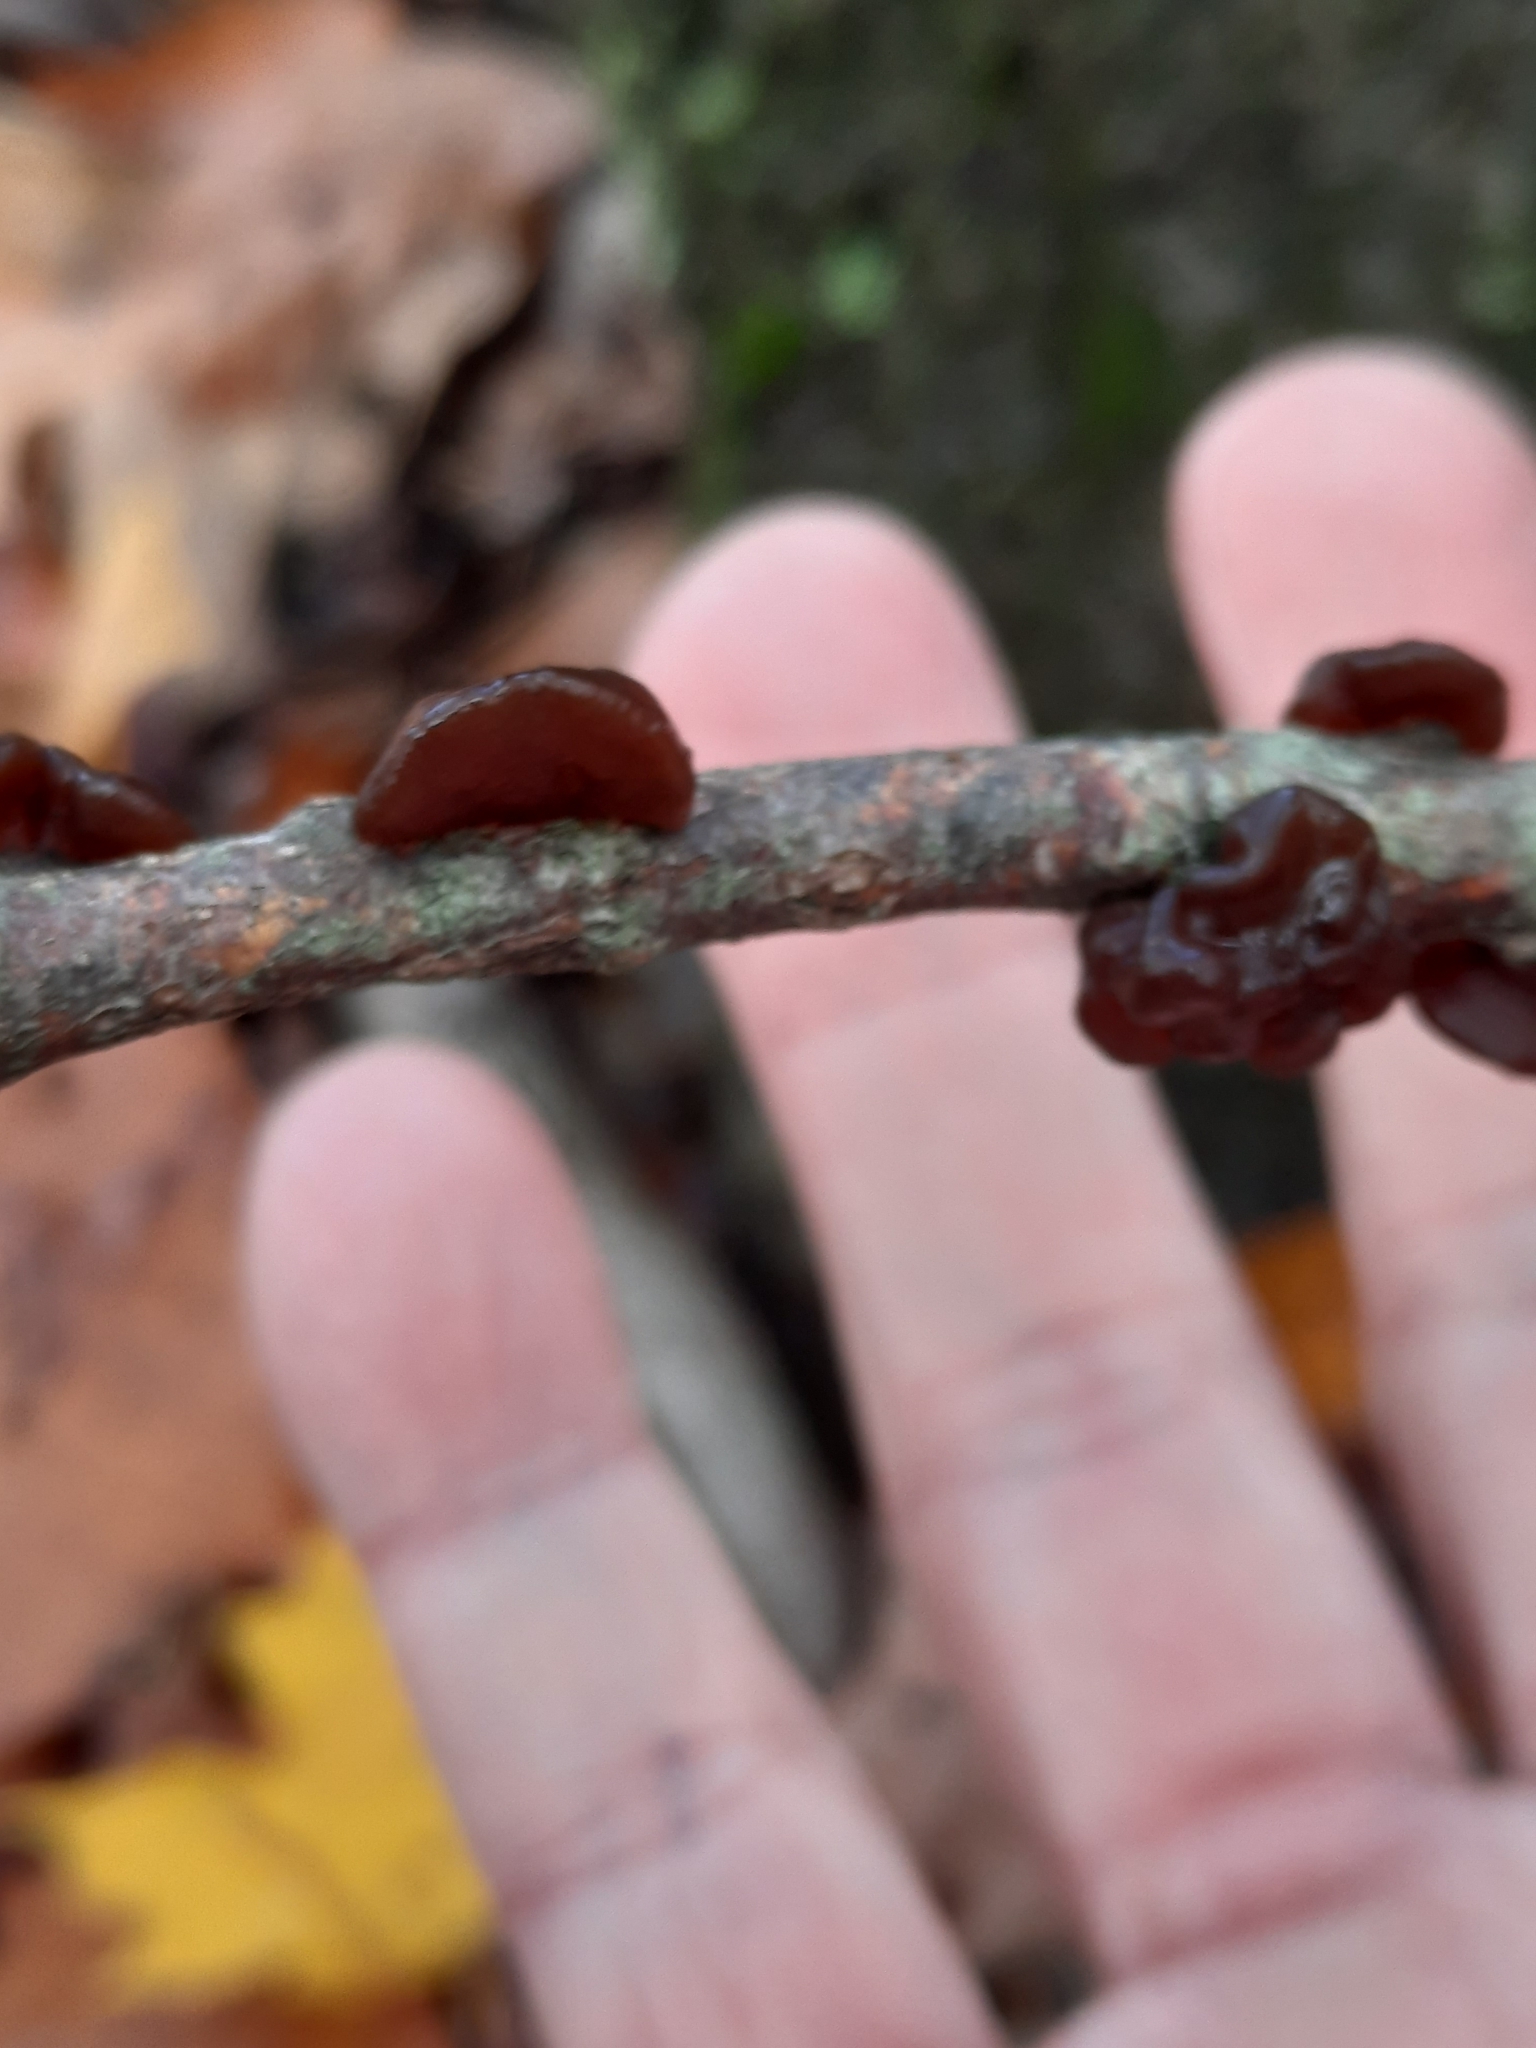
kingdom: Fungi
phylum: Basidiomycota
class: Agaricomycetes
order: Auriculariales
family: Auriculariaceae
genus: Exidia
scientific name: Exidia recisa
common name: Amber jelly
